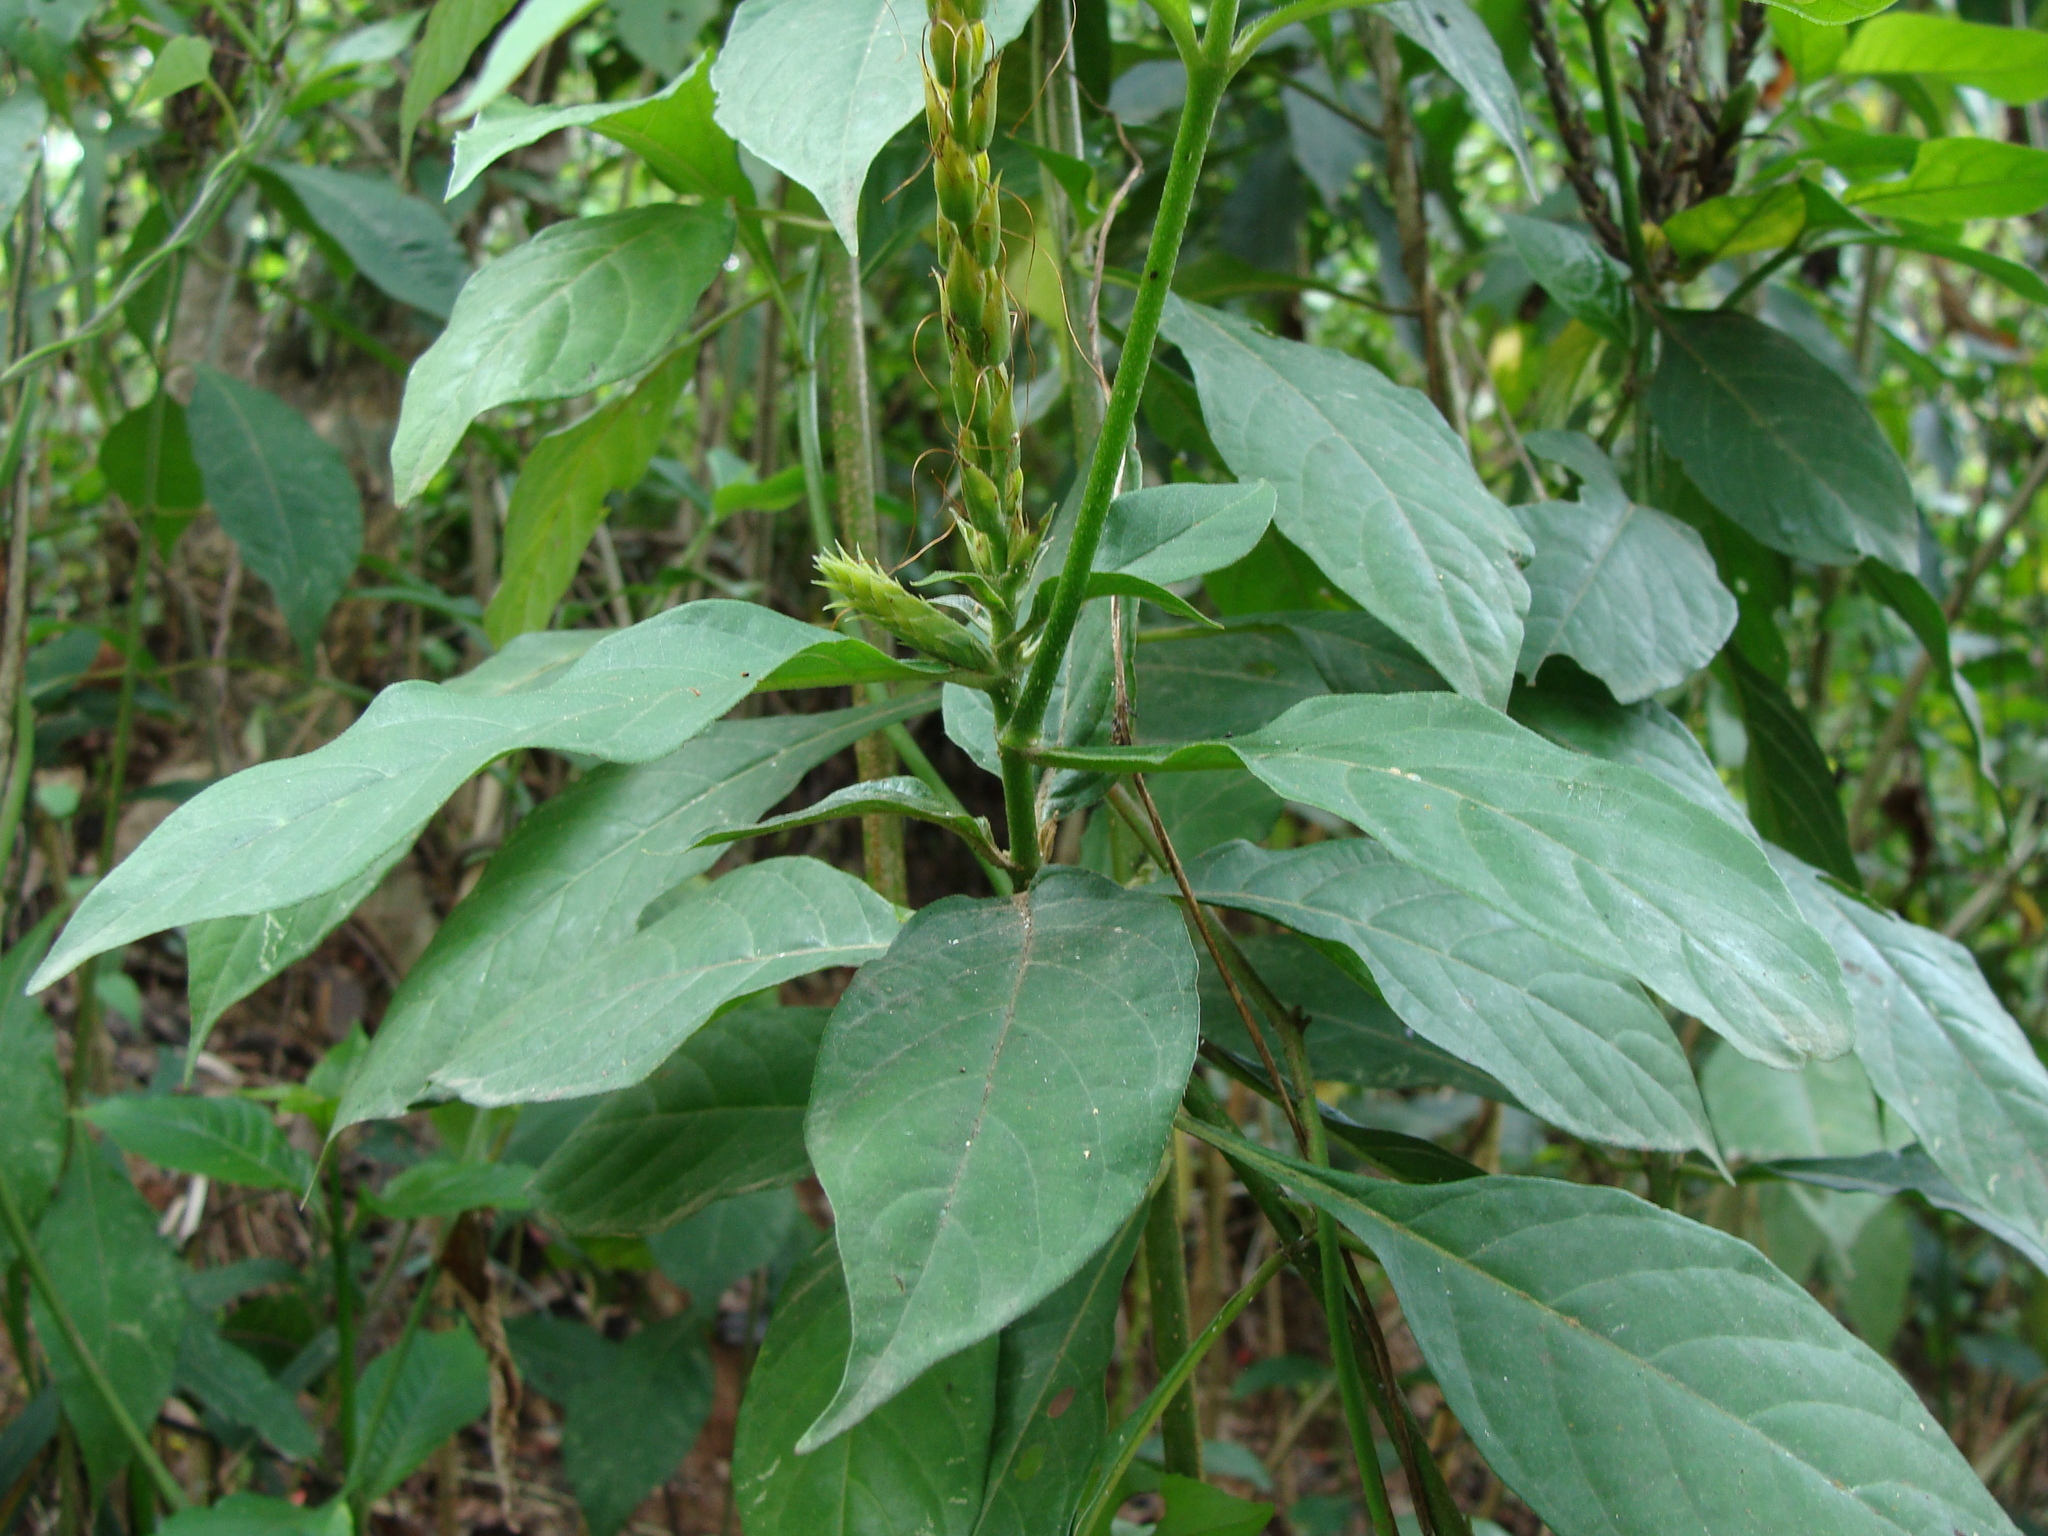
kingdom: Plantae
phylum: Tracheophyta
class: Magnoliopsida
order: Lamiales
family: Acanthaceae
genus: Aphelandra
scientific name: Aphelandra scabra
